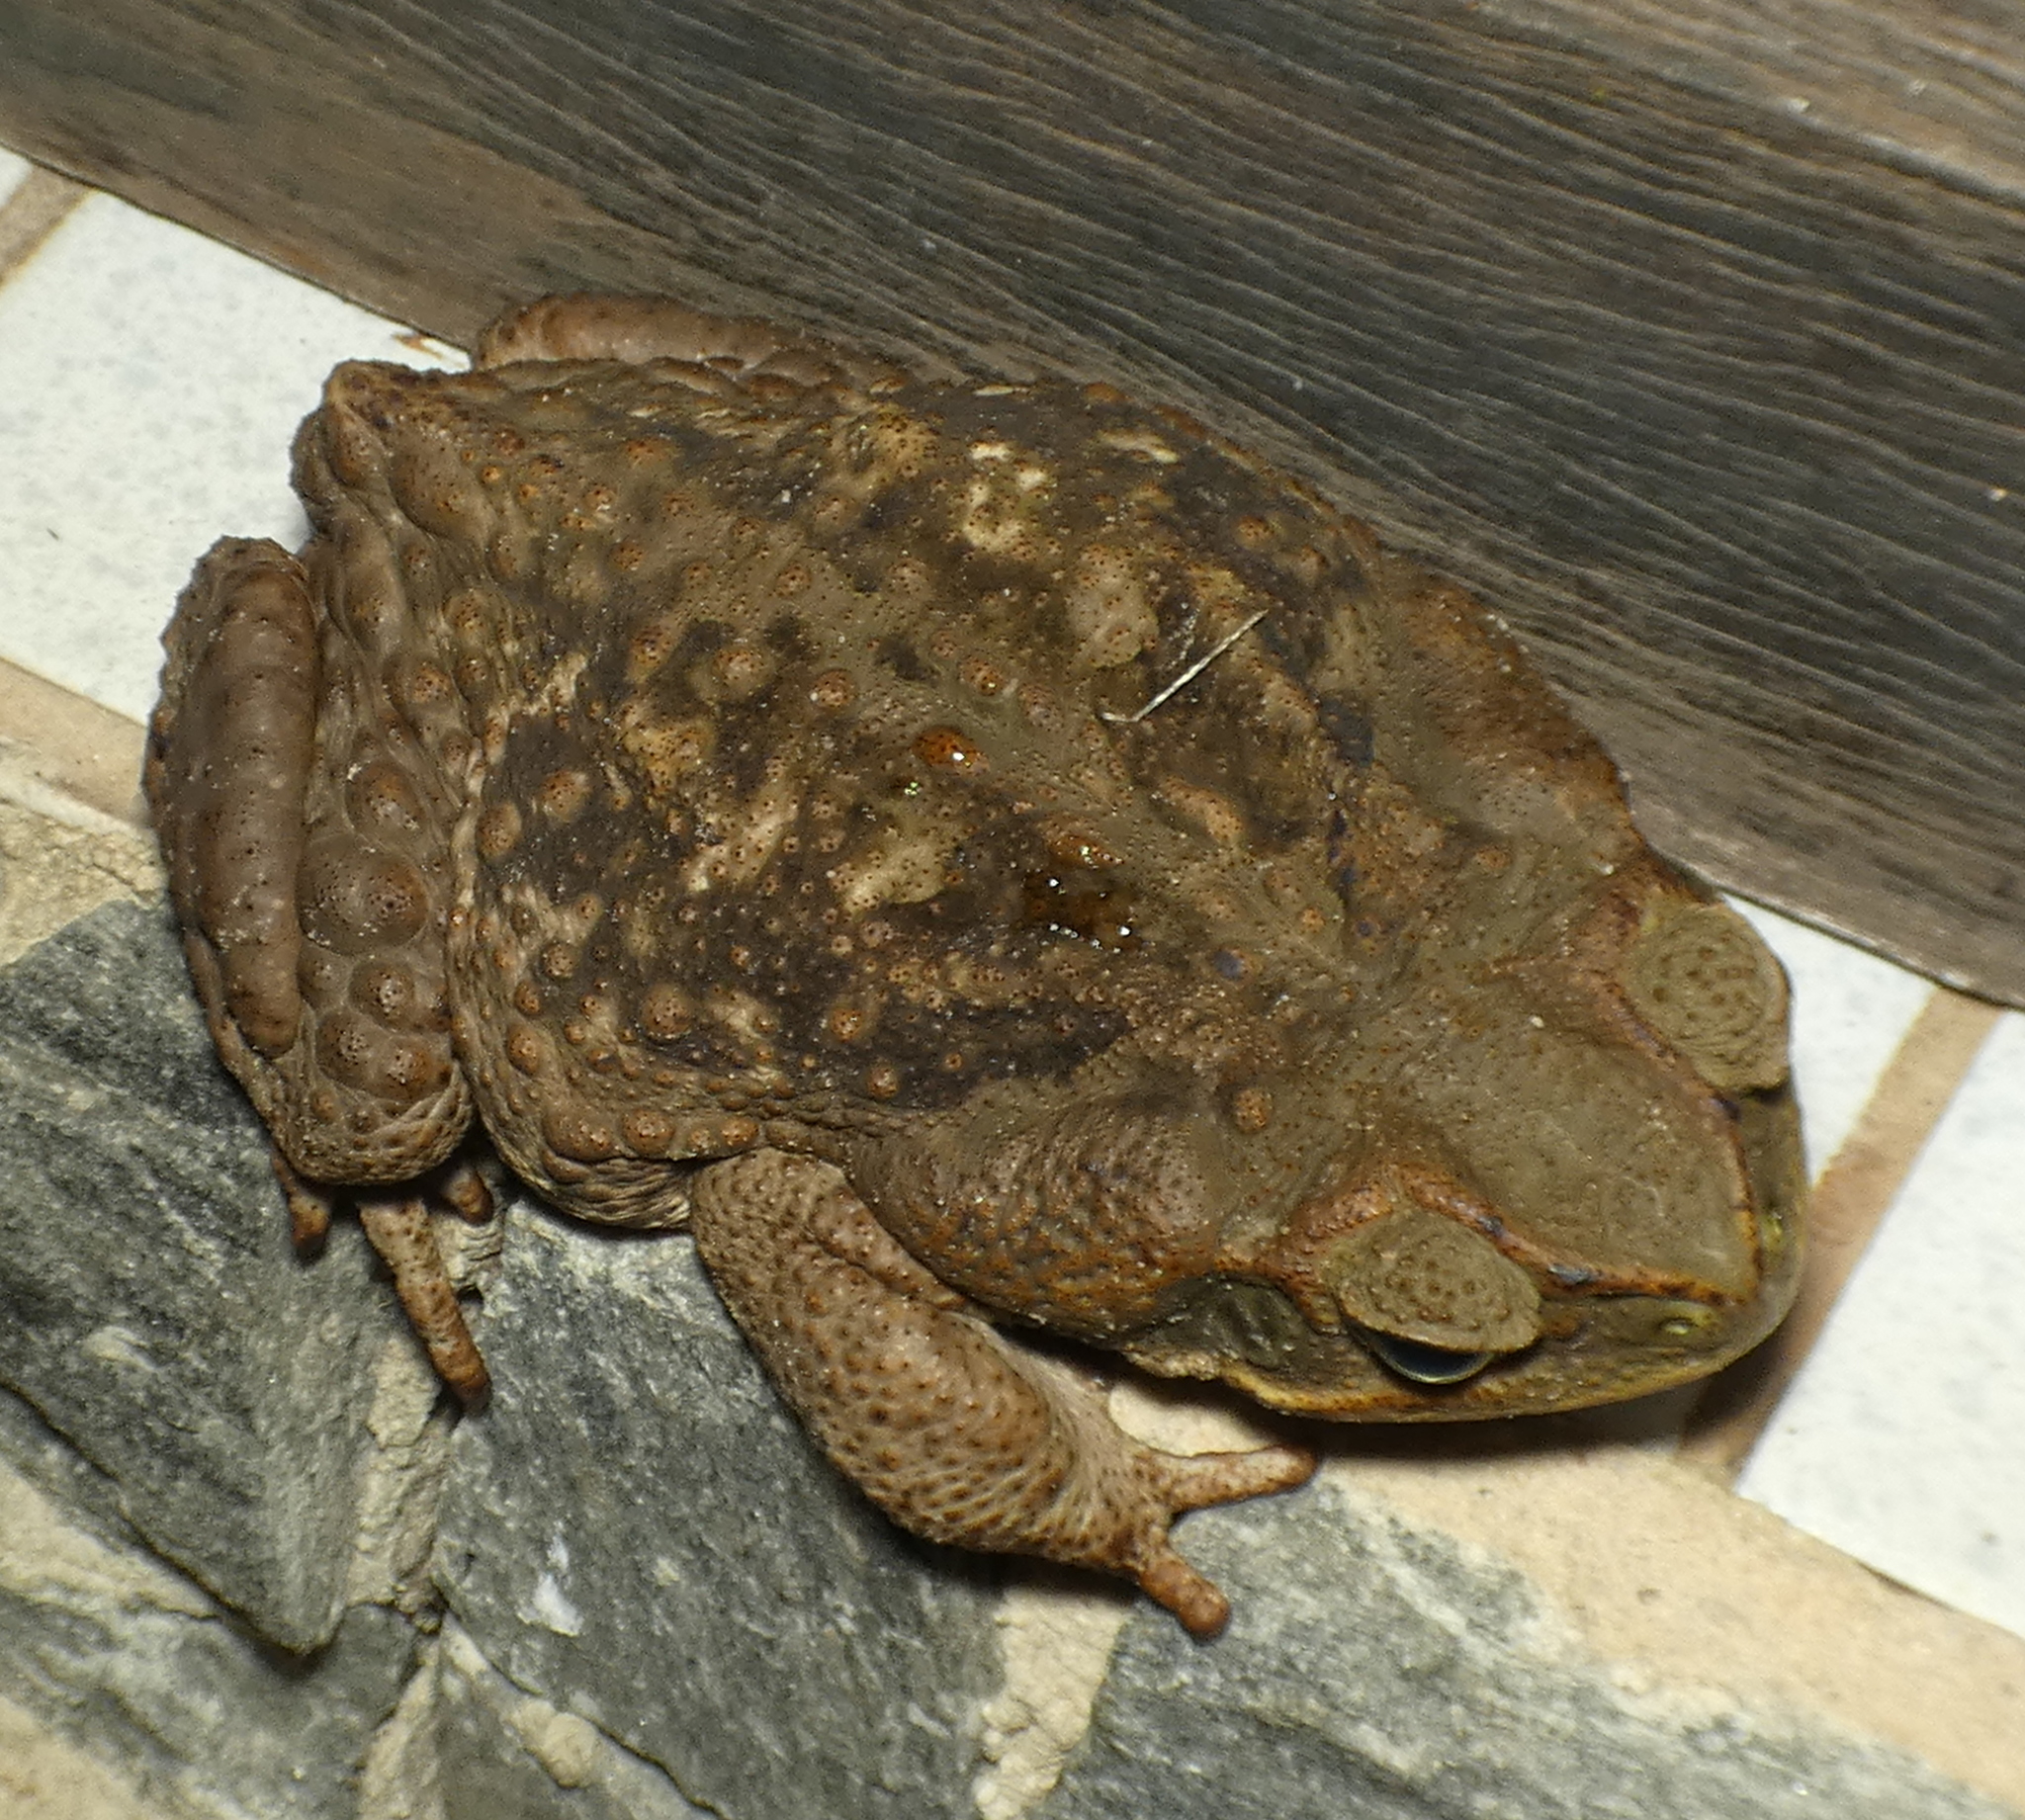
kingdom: Animalia
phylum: Chordata
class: Amphibia
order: Anura
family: Bufonidae
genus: Rhinella
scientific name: Rhinella diptycha
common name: Cope's toad
